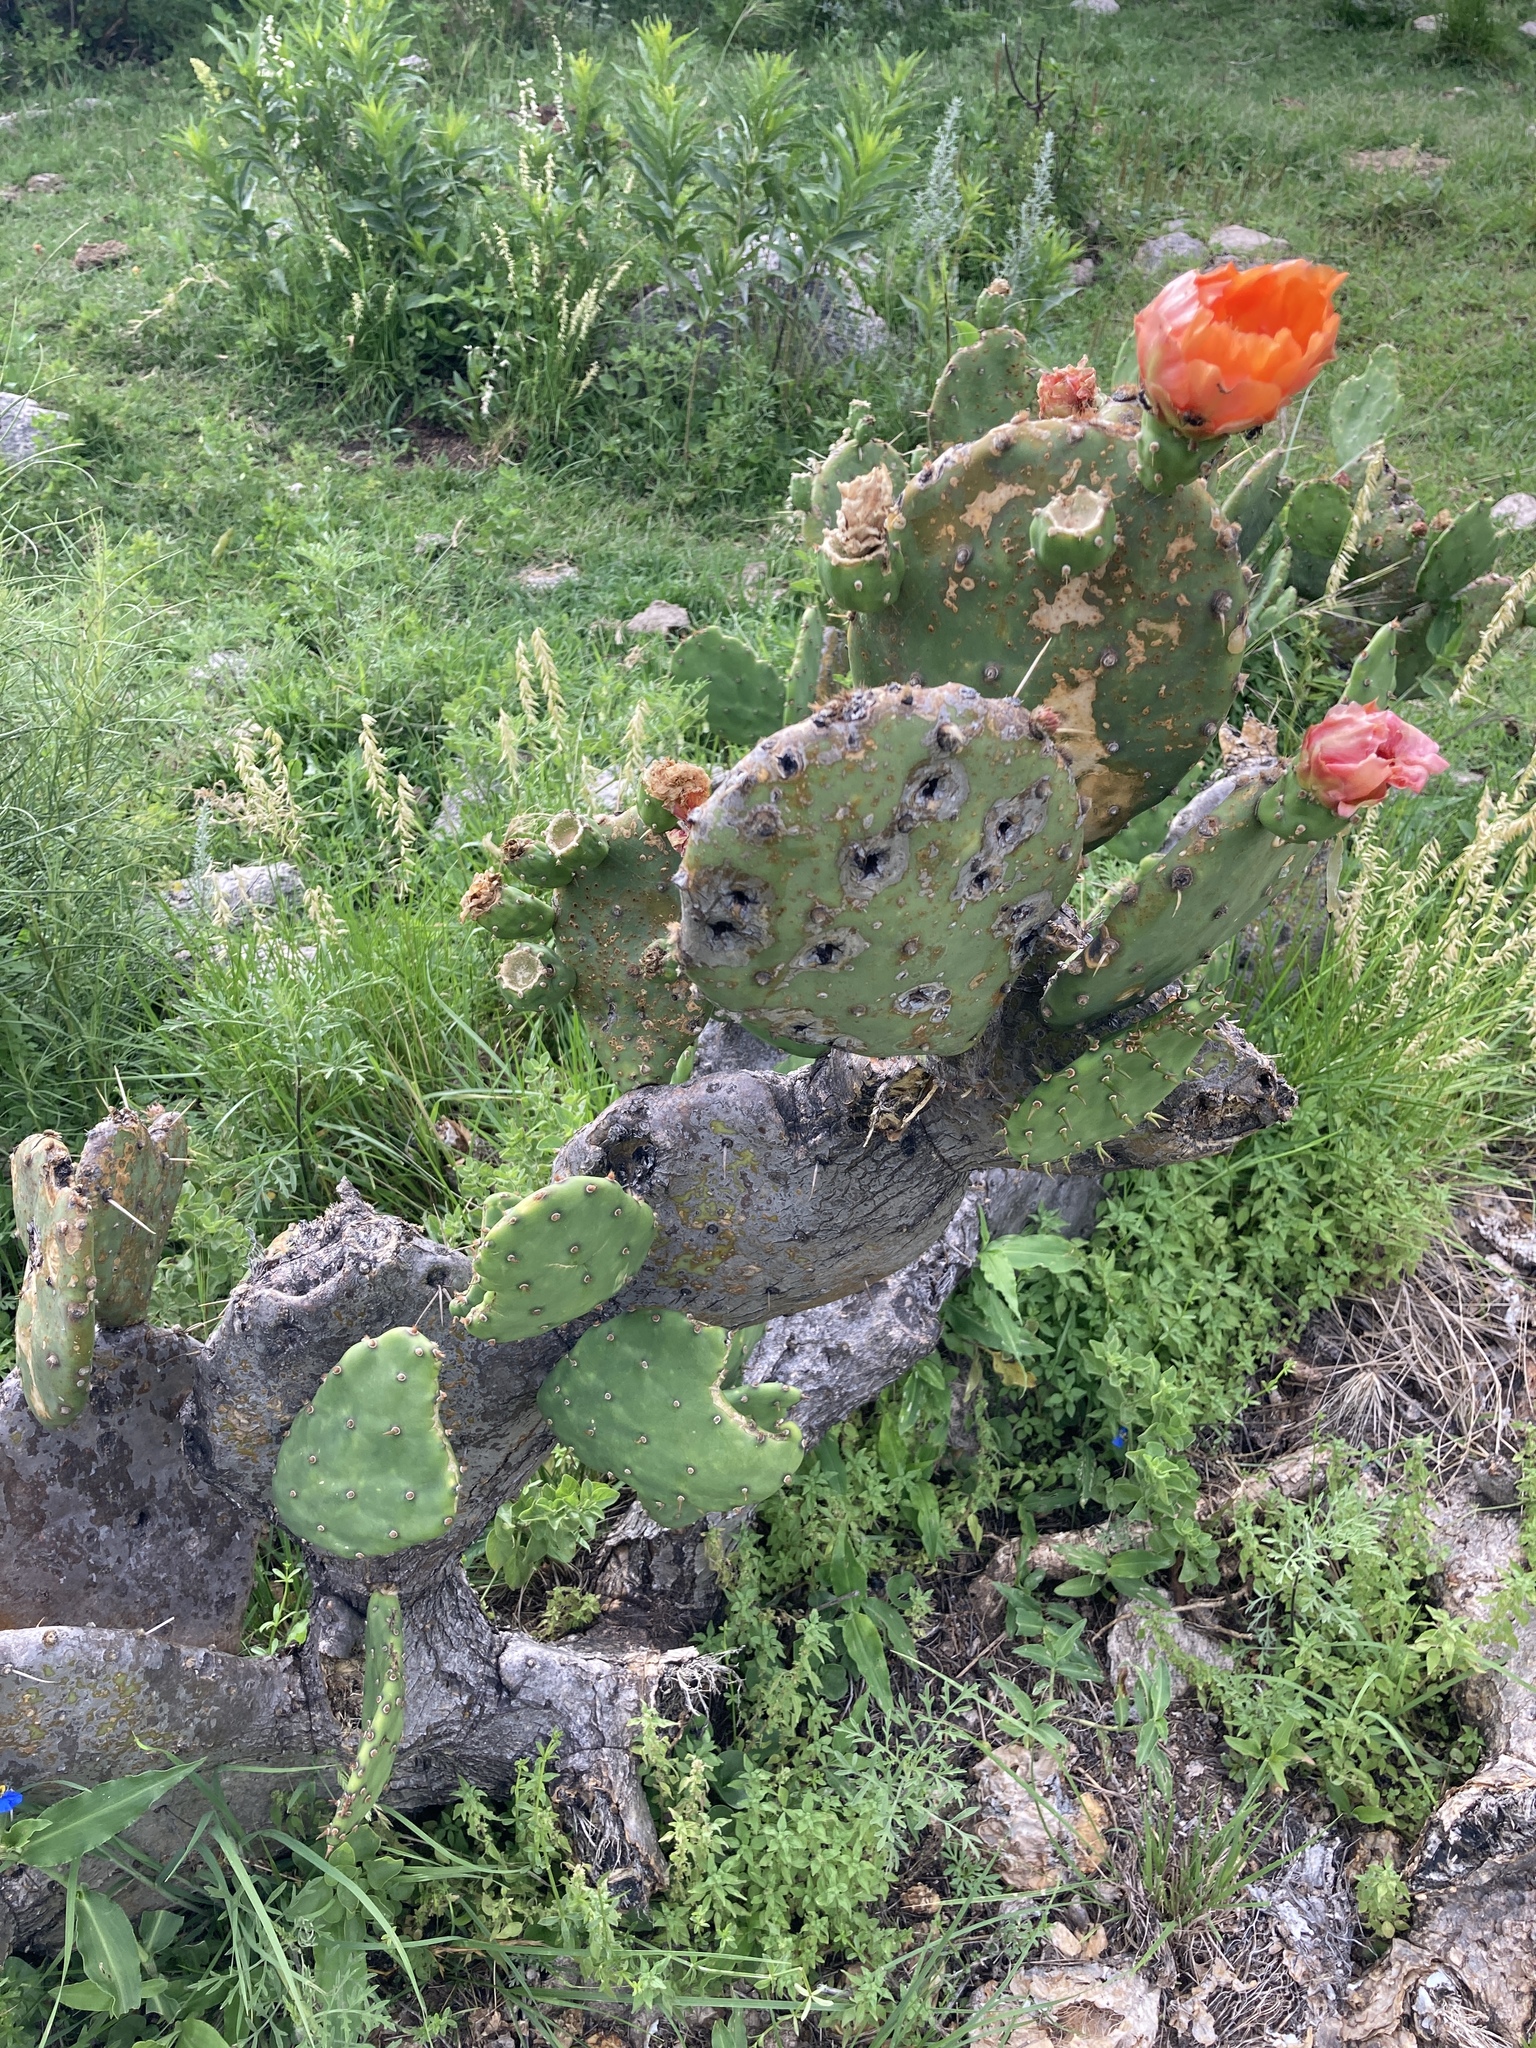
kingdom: Plantae
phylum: Tracheophyta
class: Magnoliopsida
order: Caryophyllales
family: Cactaceae
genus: Opuntia
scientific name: Opuntia megapotamica
